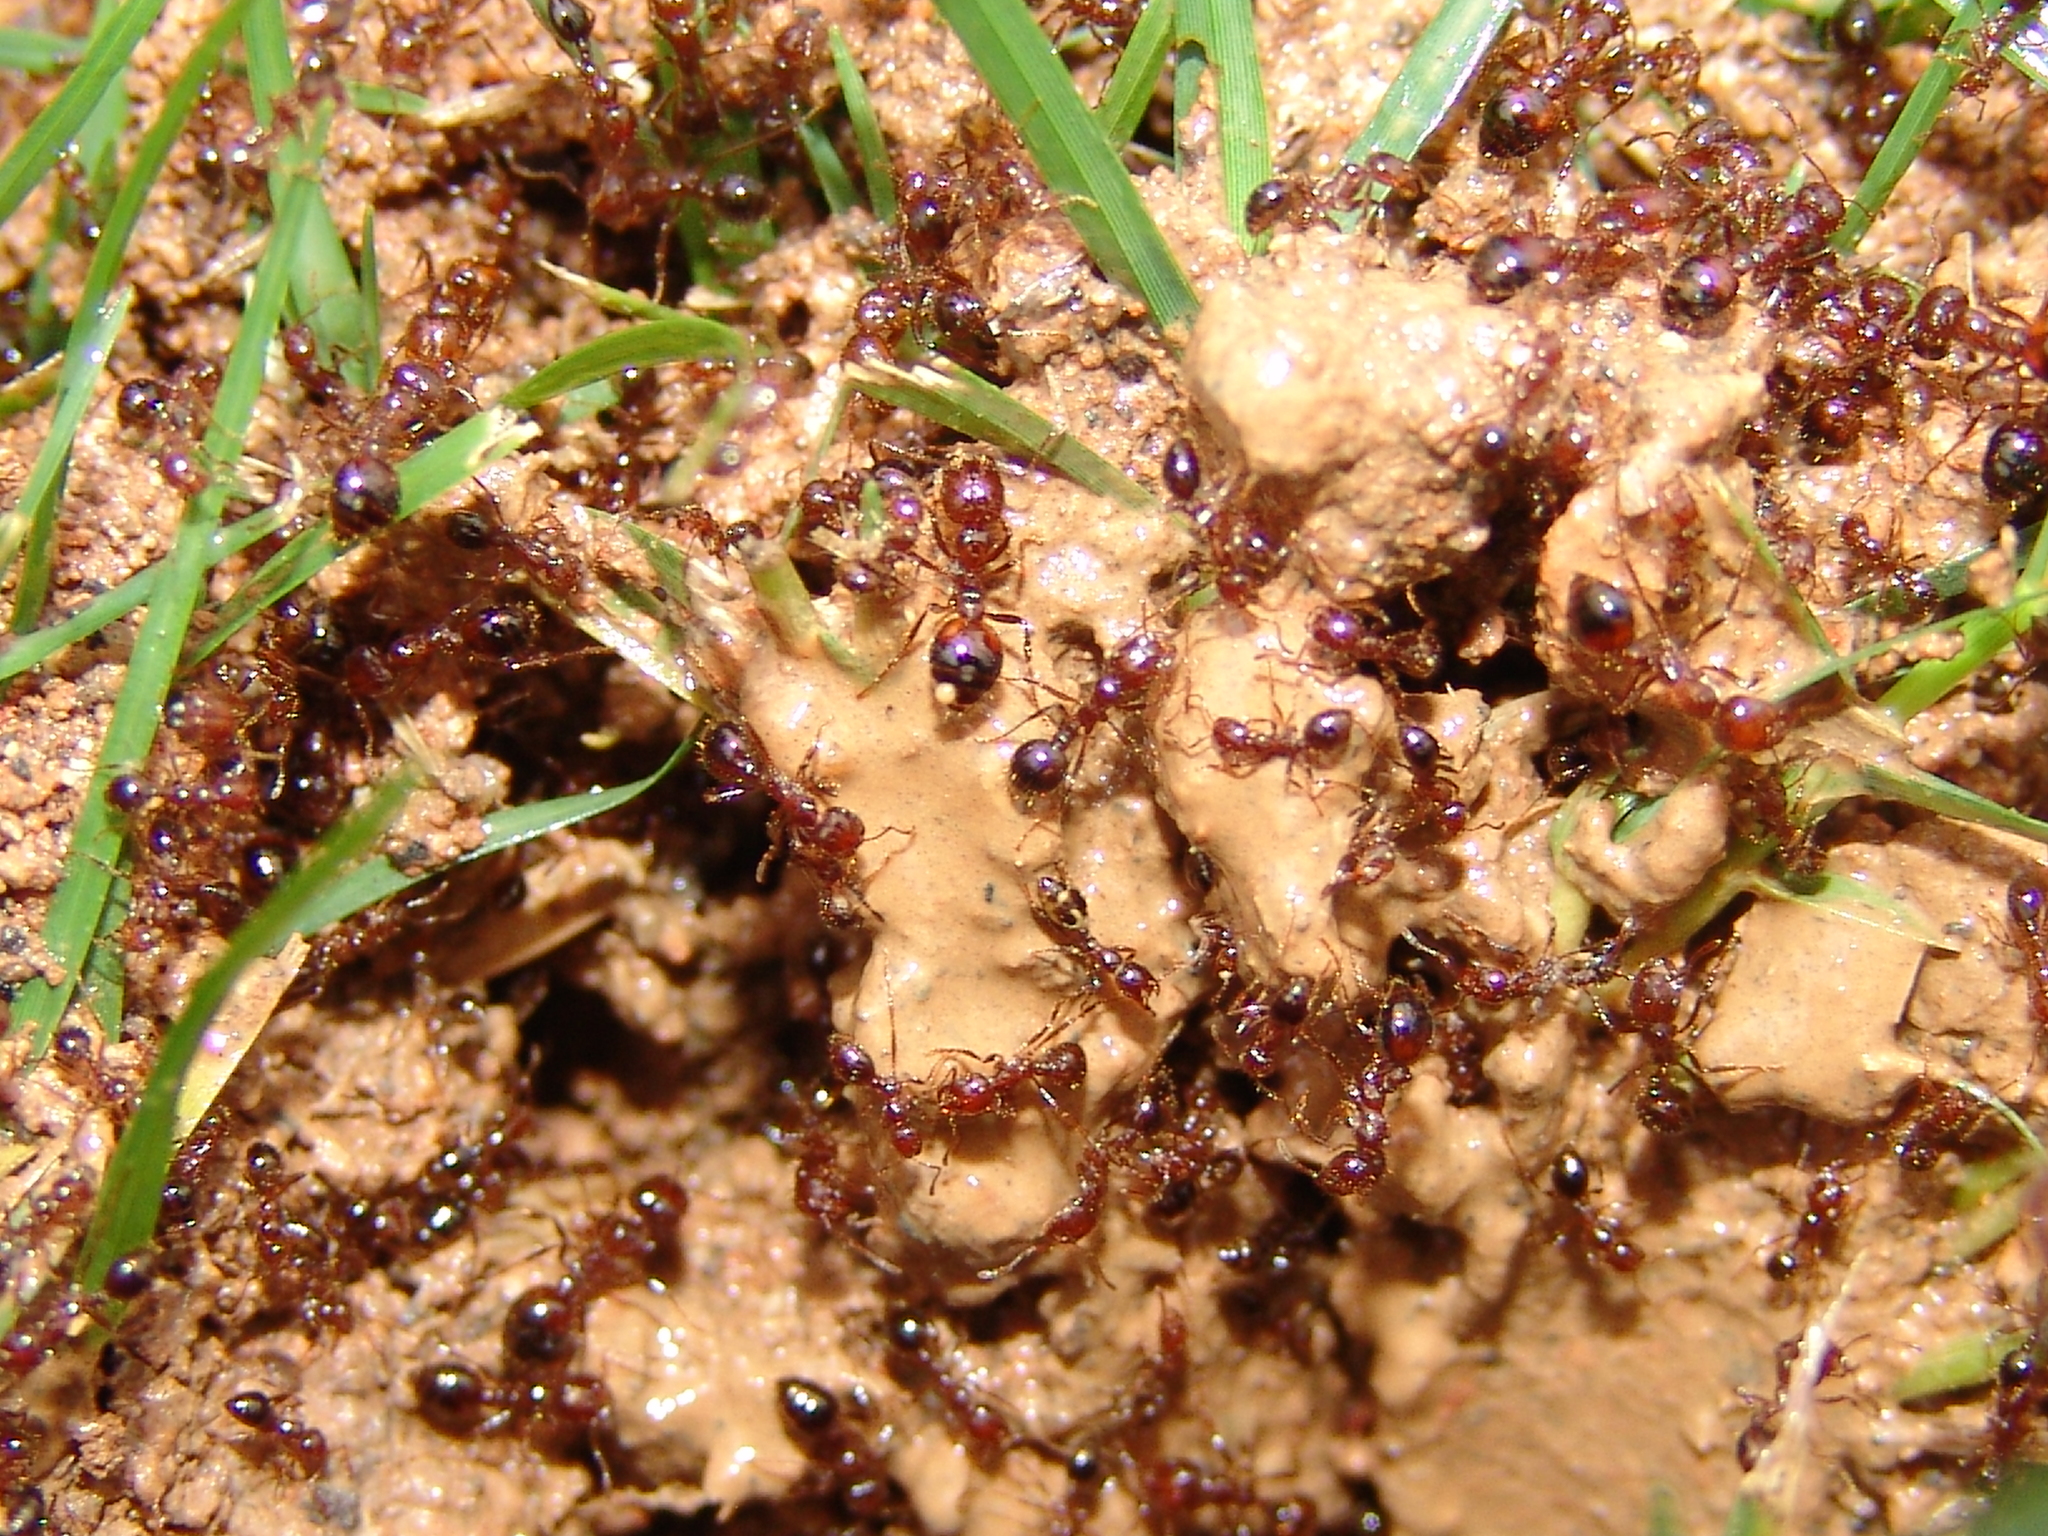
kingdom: Animalia
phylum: Arthropoda
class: Insecta
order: Hymenoptera
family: Formicidae
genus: Solenopsis
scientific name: Solenopsis
